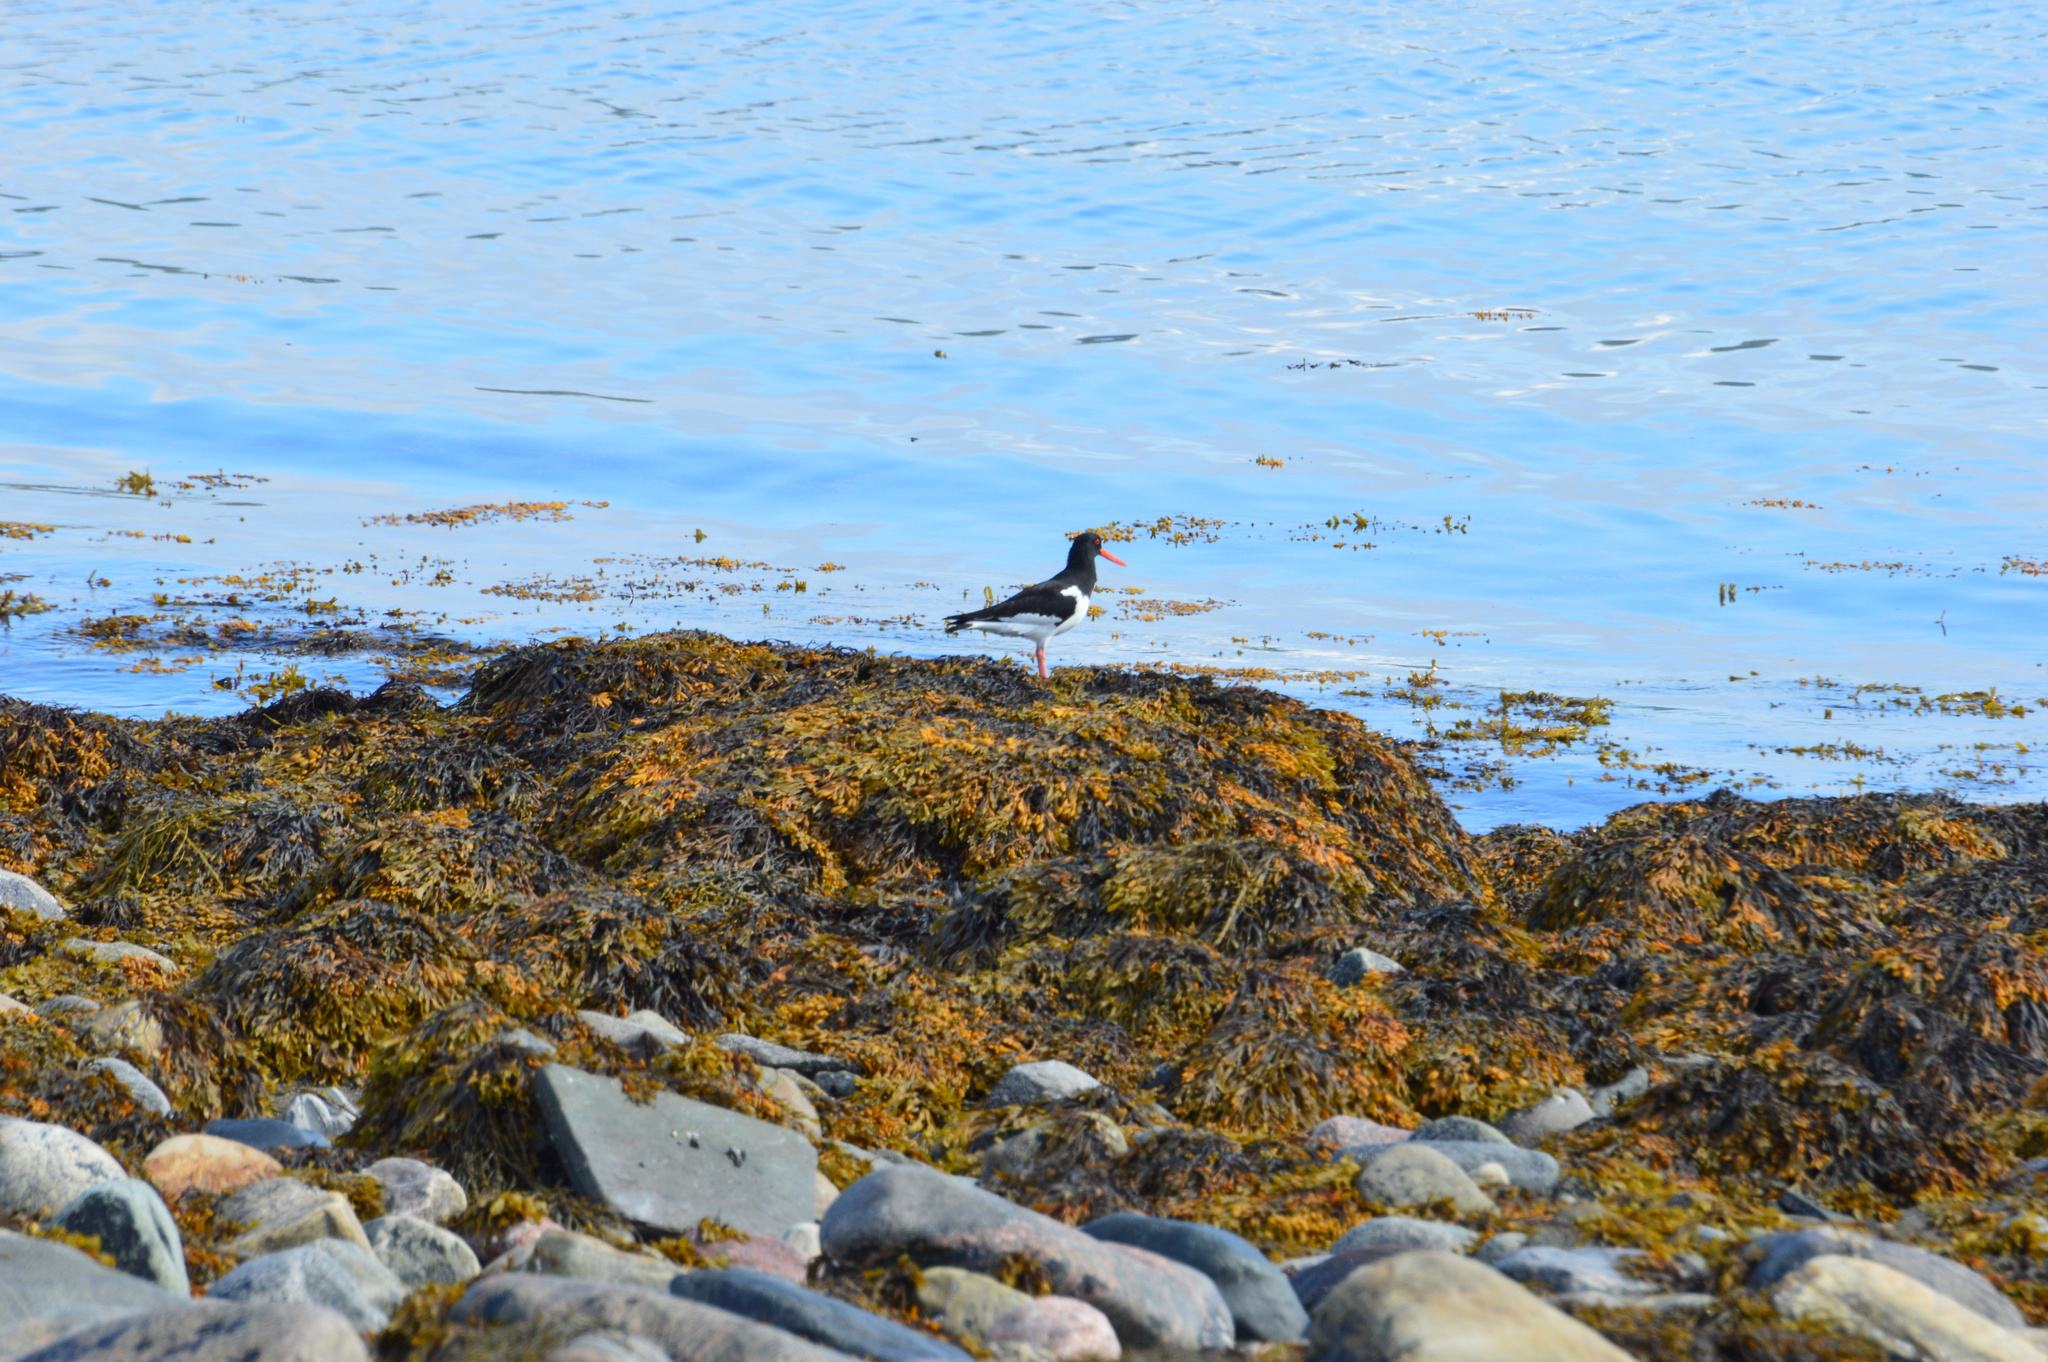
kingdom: Animalia
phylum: Chordata
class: Aves
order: Charadriiformes
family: Haematopodidae
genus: Haematopus
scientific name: Haematopus ostralegus
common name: Eurasian oystercatcher
